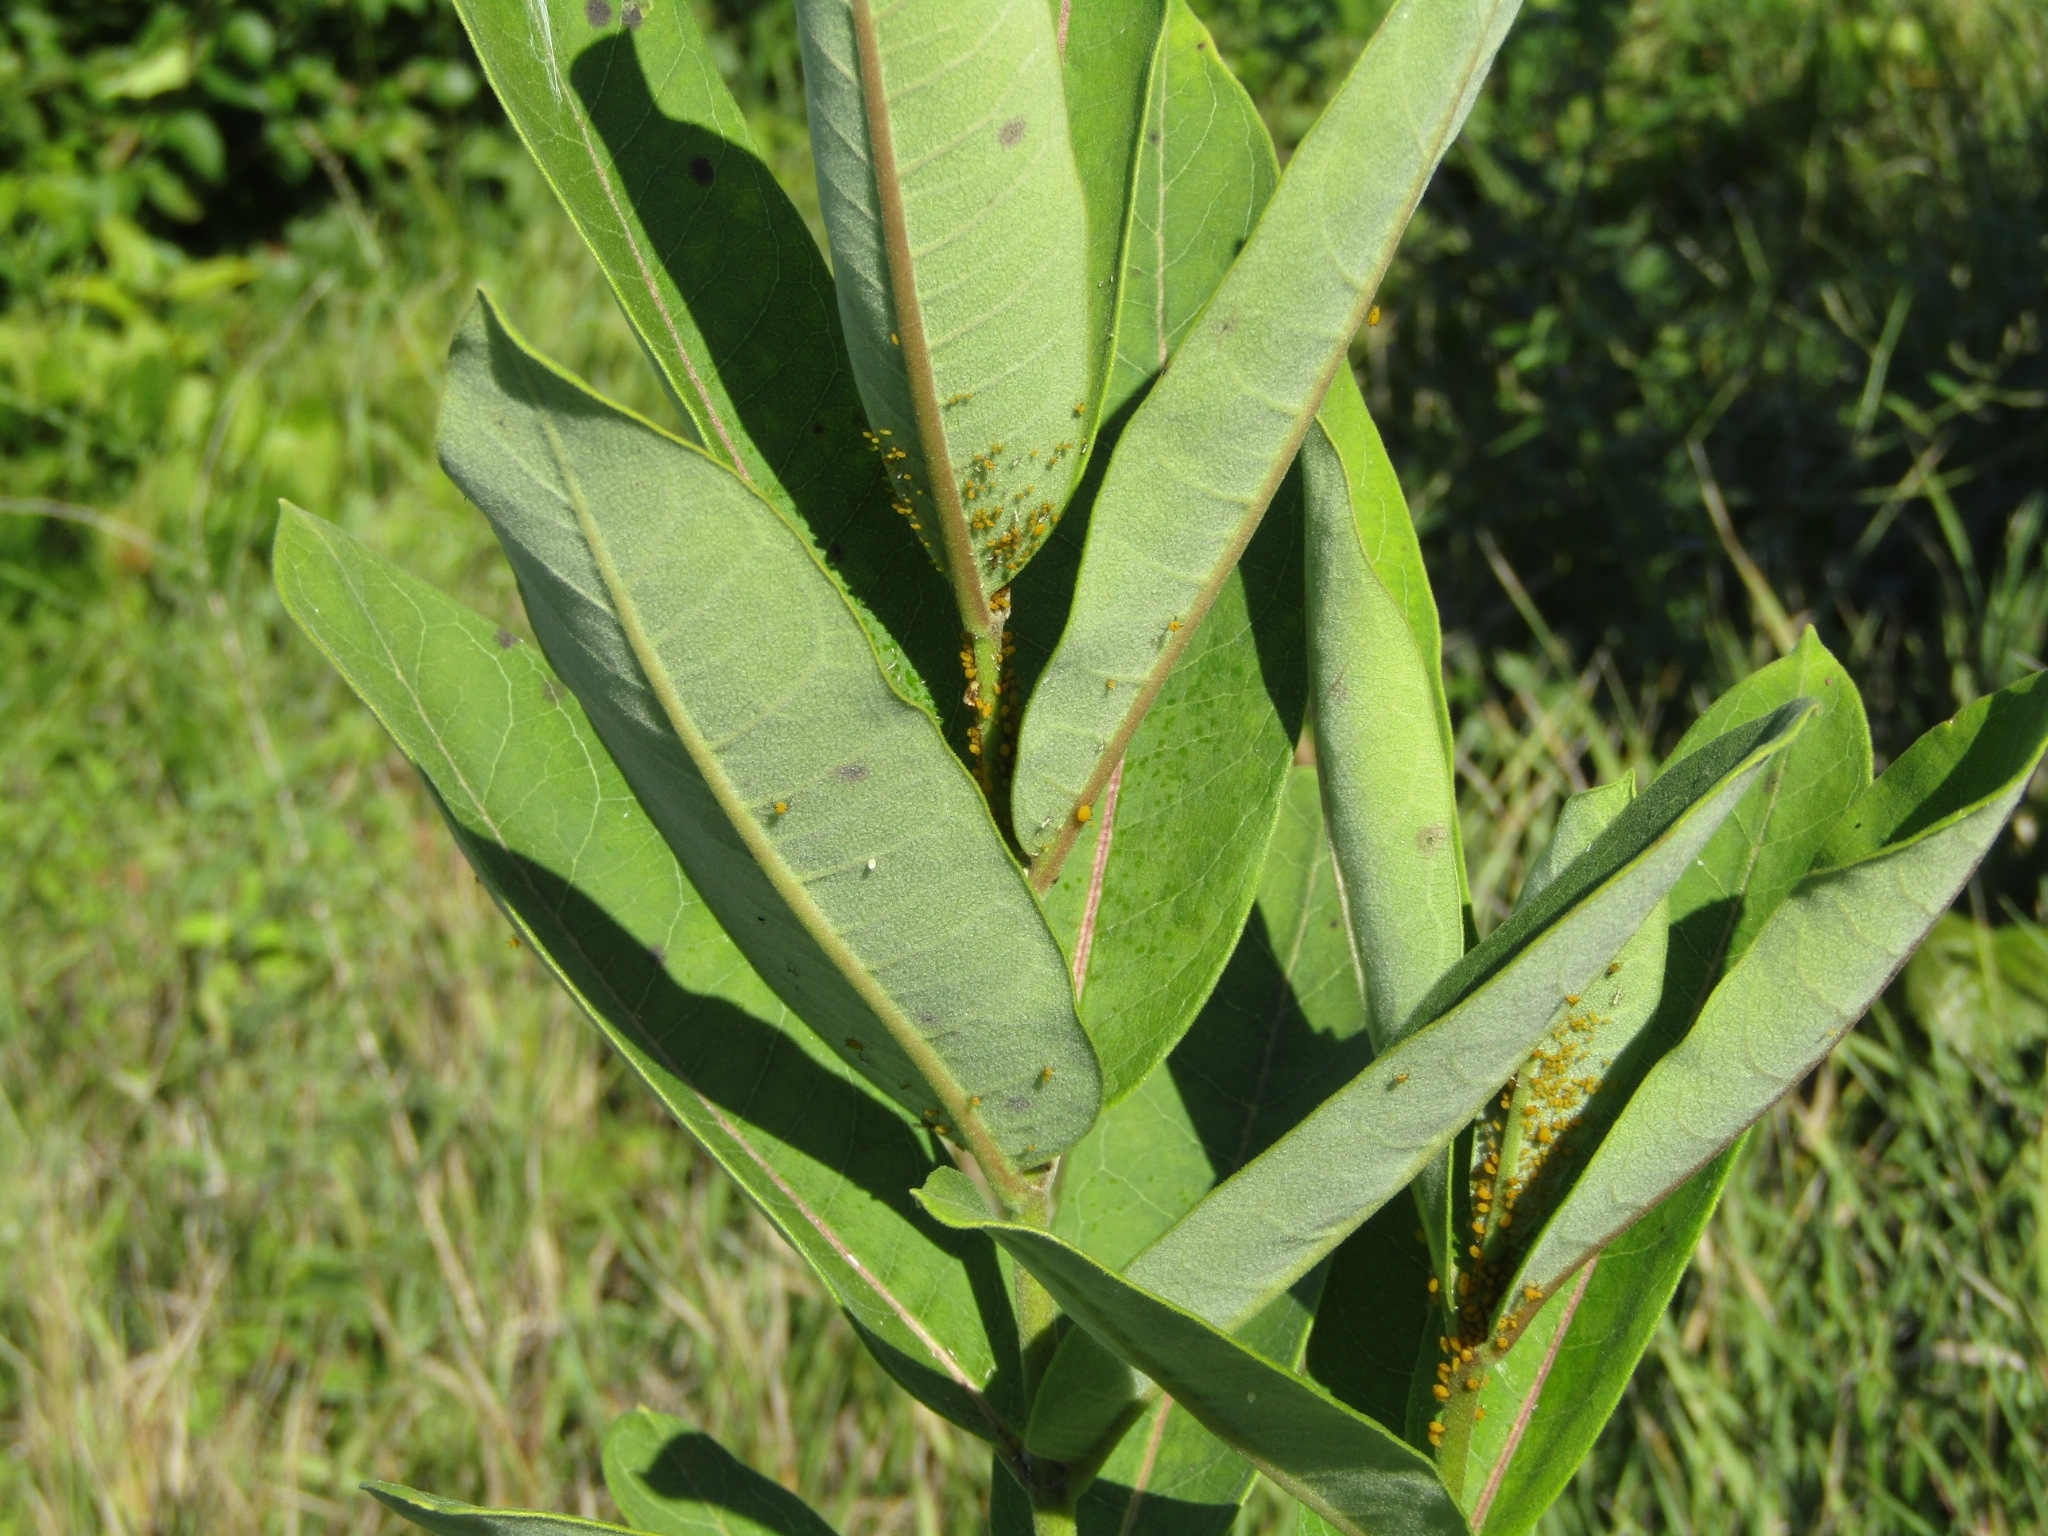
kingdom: Animalia
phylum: Arthropoda
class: Insecta
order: Hemiptera
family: Aphididae
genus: Aphis
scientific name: Aphis nerii
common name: Oleander aphid
